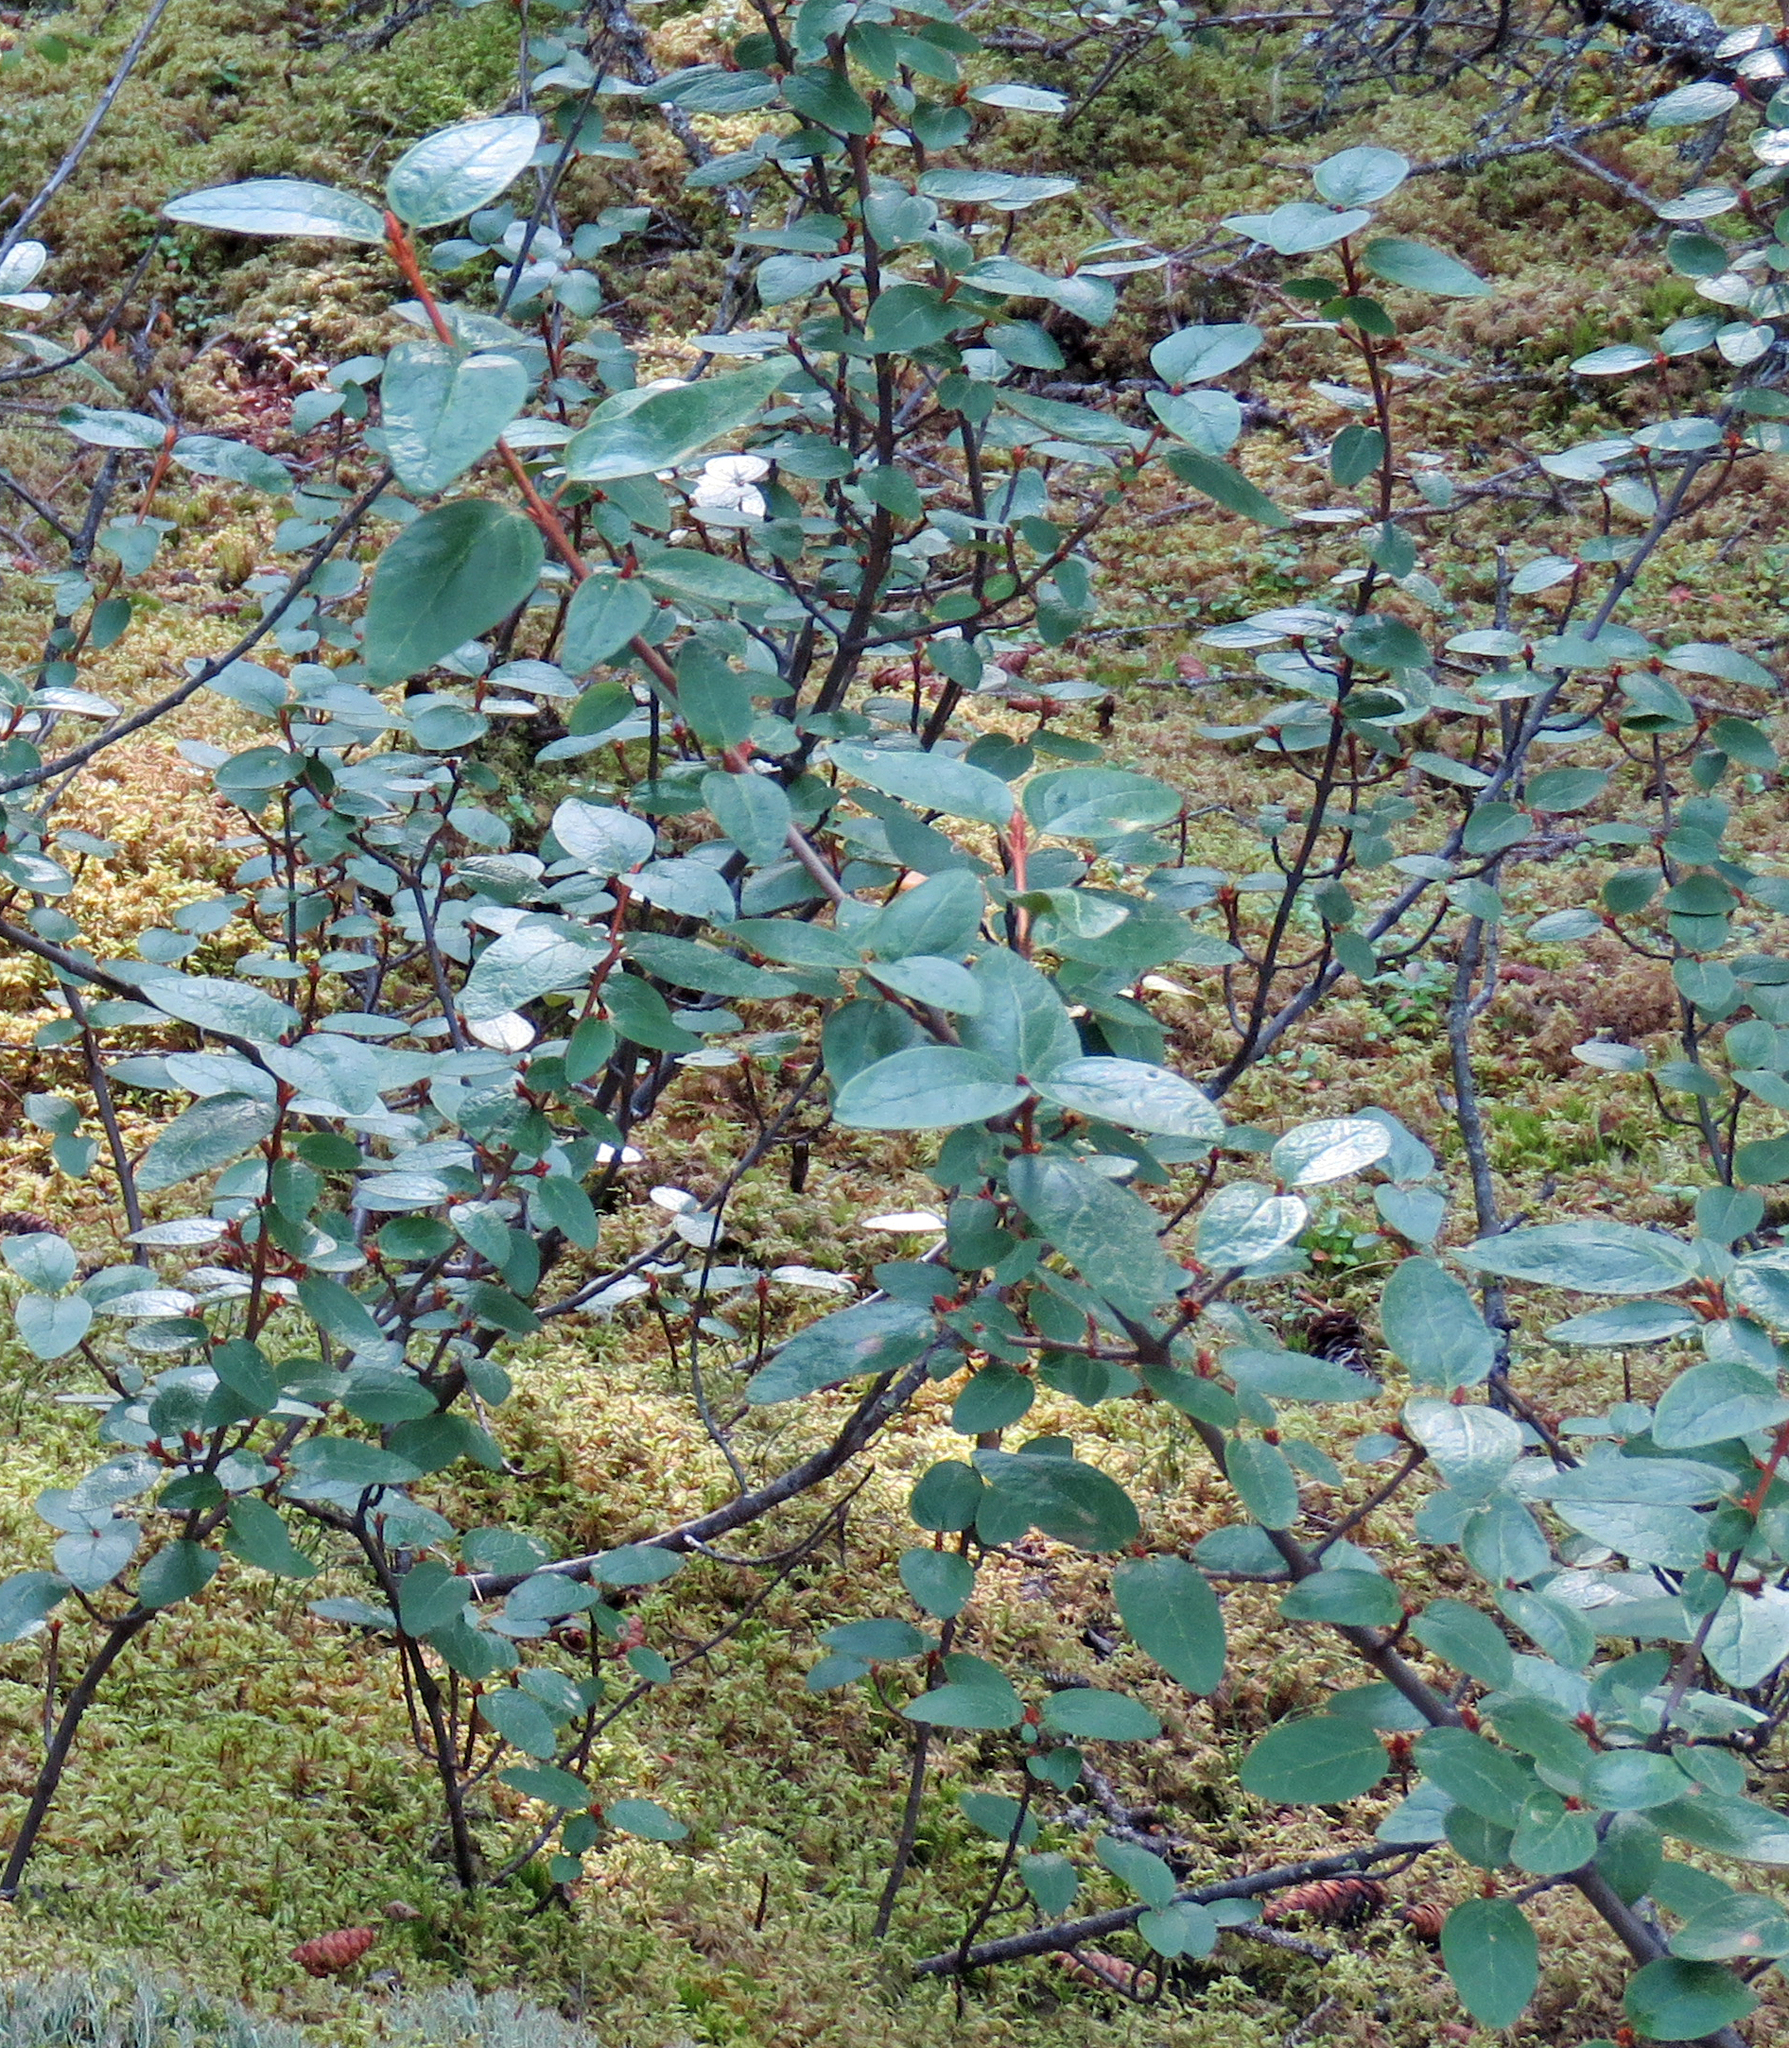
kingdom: Plantae
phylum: Tracheophyta
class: Magnoliopsida
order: Rosales
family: Elaeagnaceae
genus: Shepherdia
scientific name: Shepherdia canadensis
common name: Soapberry
